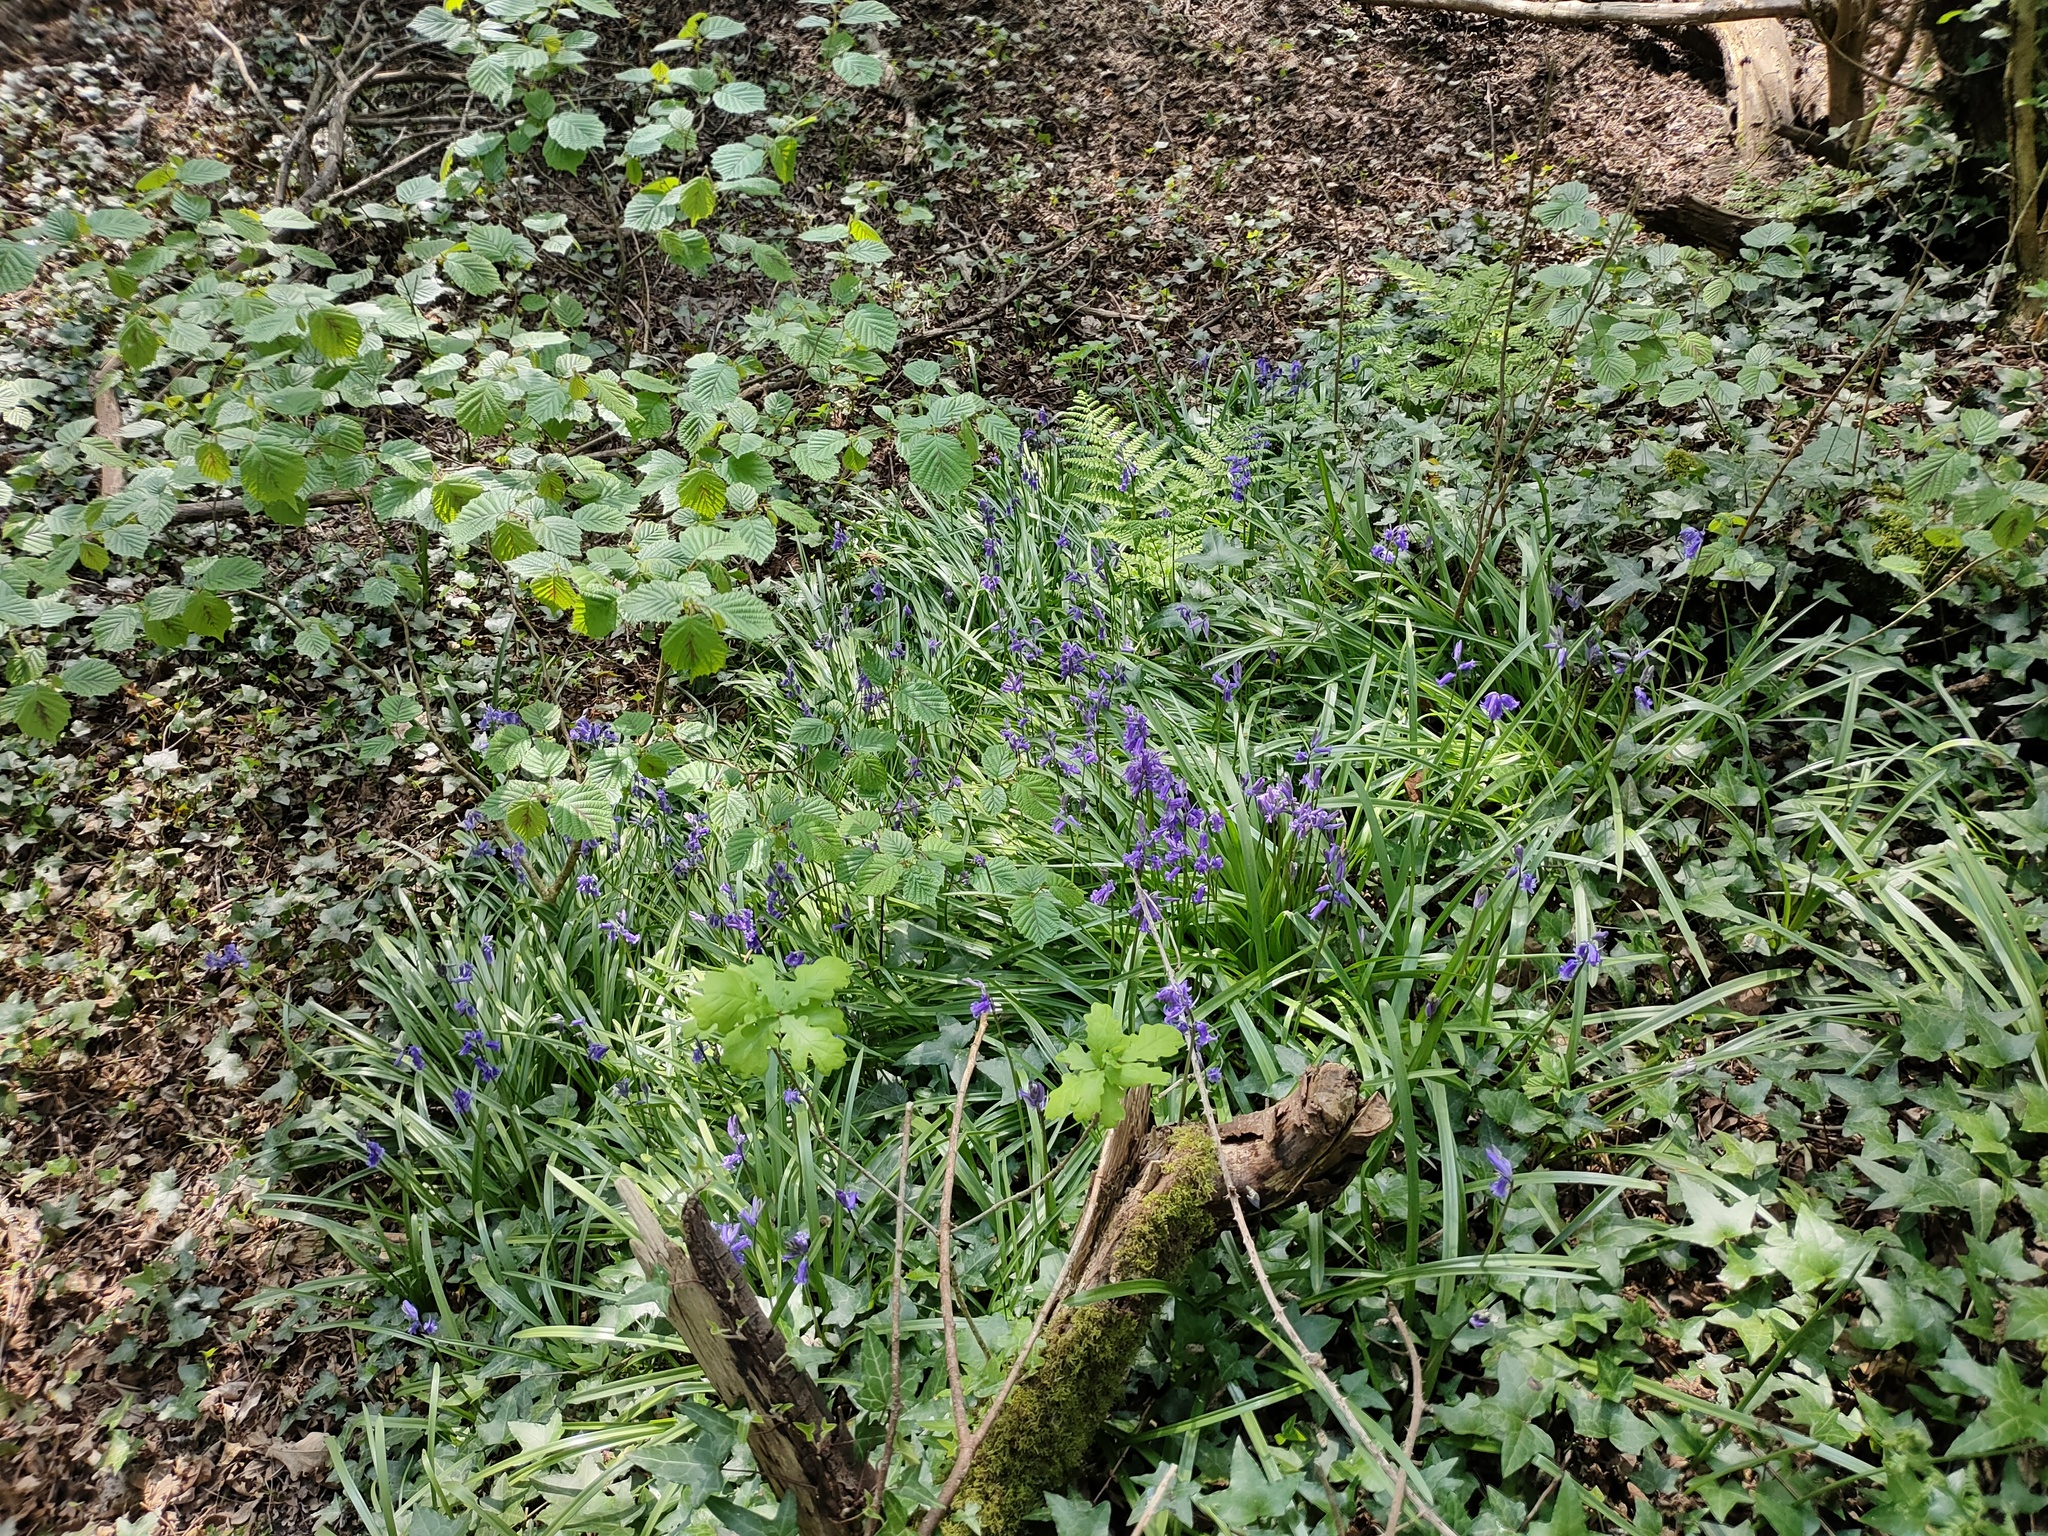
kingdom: Plantae
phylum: Tracheophyta
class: Liliopsida
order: Asparagales
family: Asparagaceae
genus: Hyacinthoides
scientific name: Hyacinthoides non-scripta
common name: Bluebell
